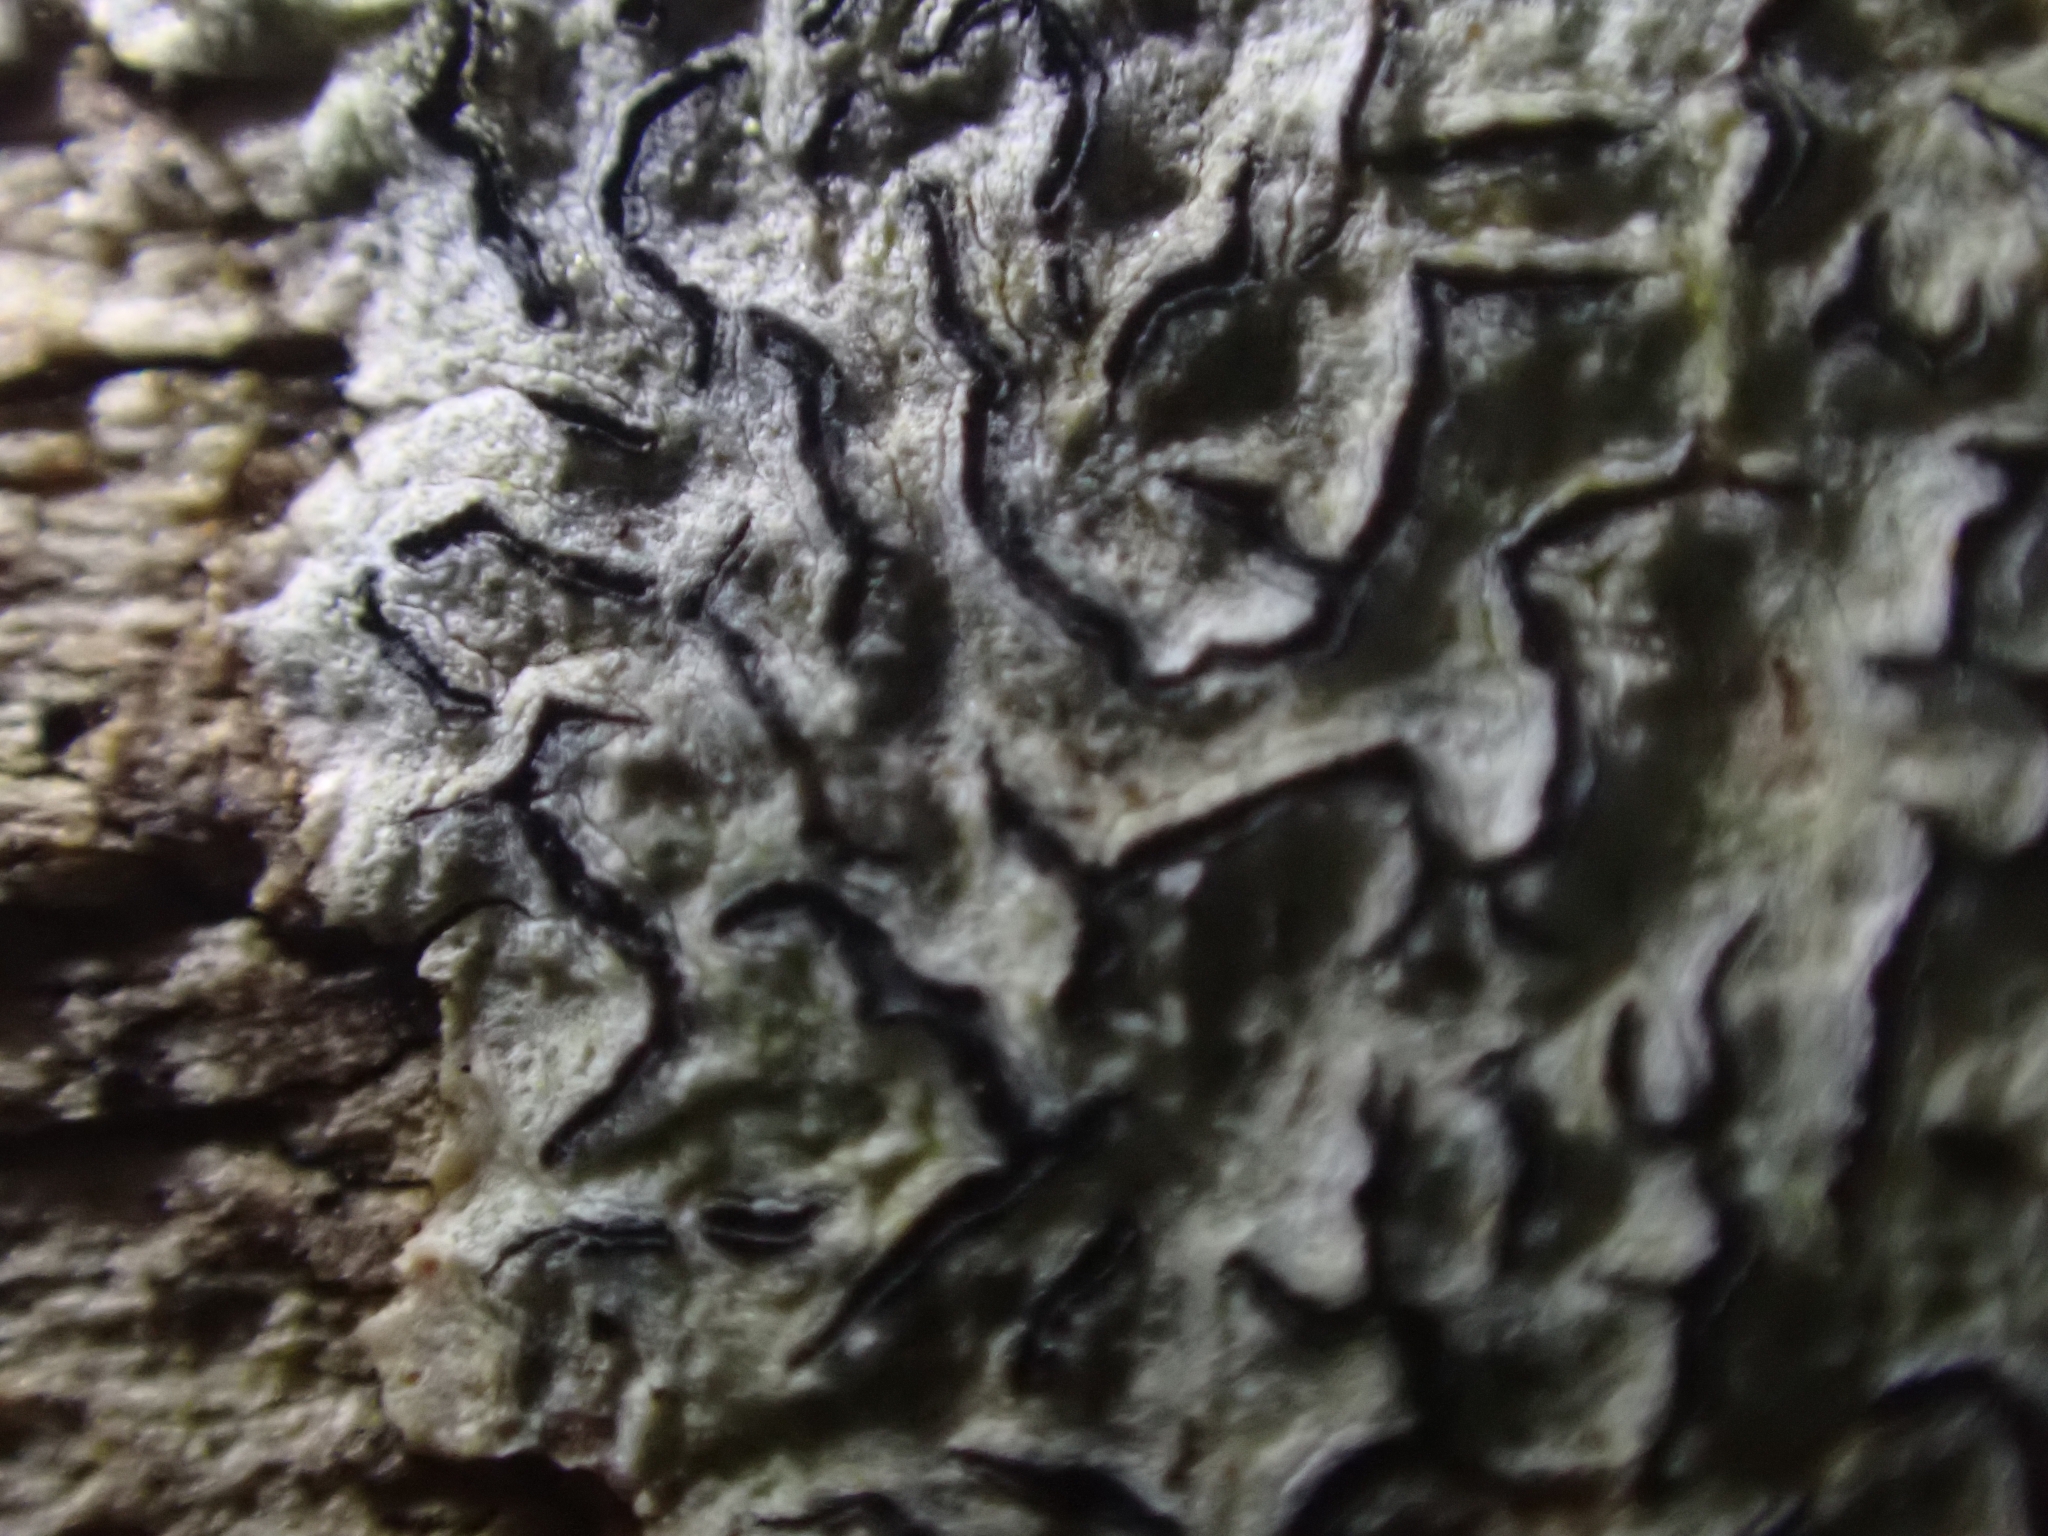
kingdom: Fungi
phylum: Ascomycota
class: Lecanoromycetes
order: Ostropales
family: Graphidaceae
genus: Graphis
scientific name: Graphis scripta
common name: Script lichen
